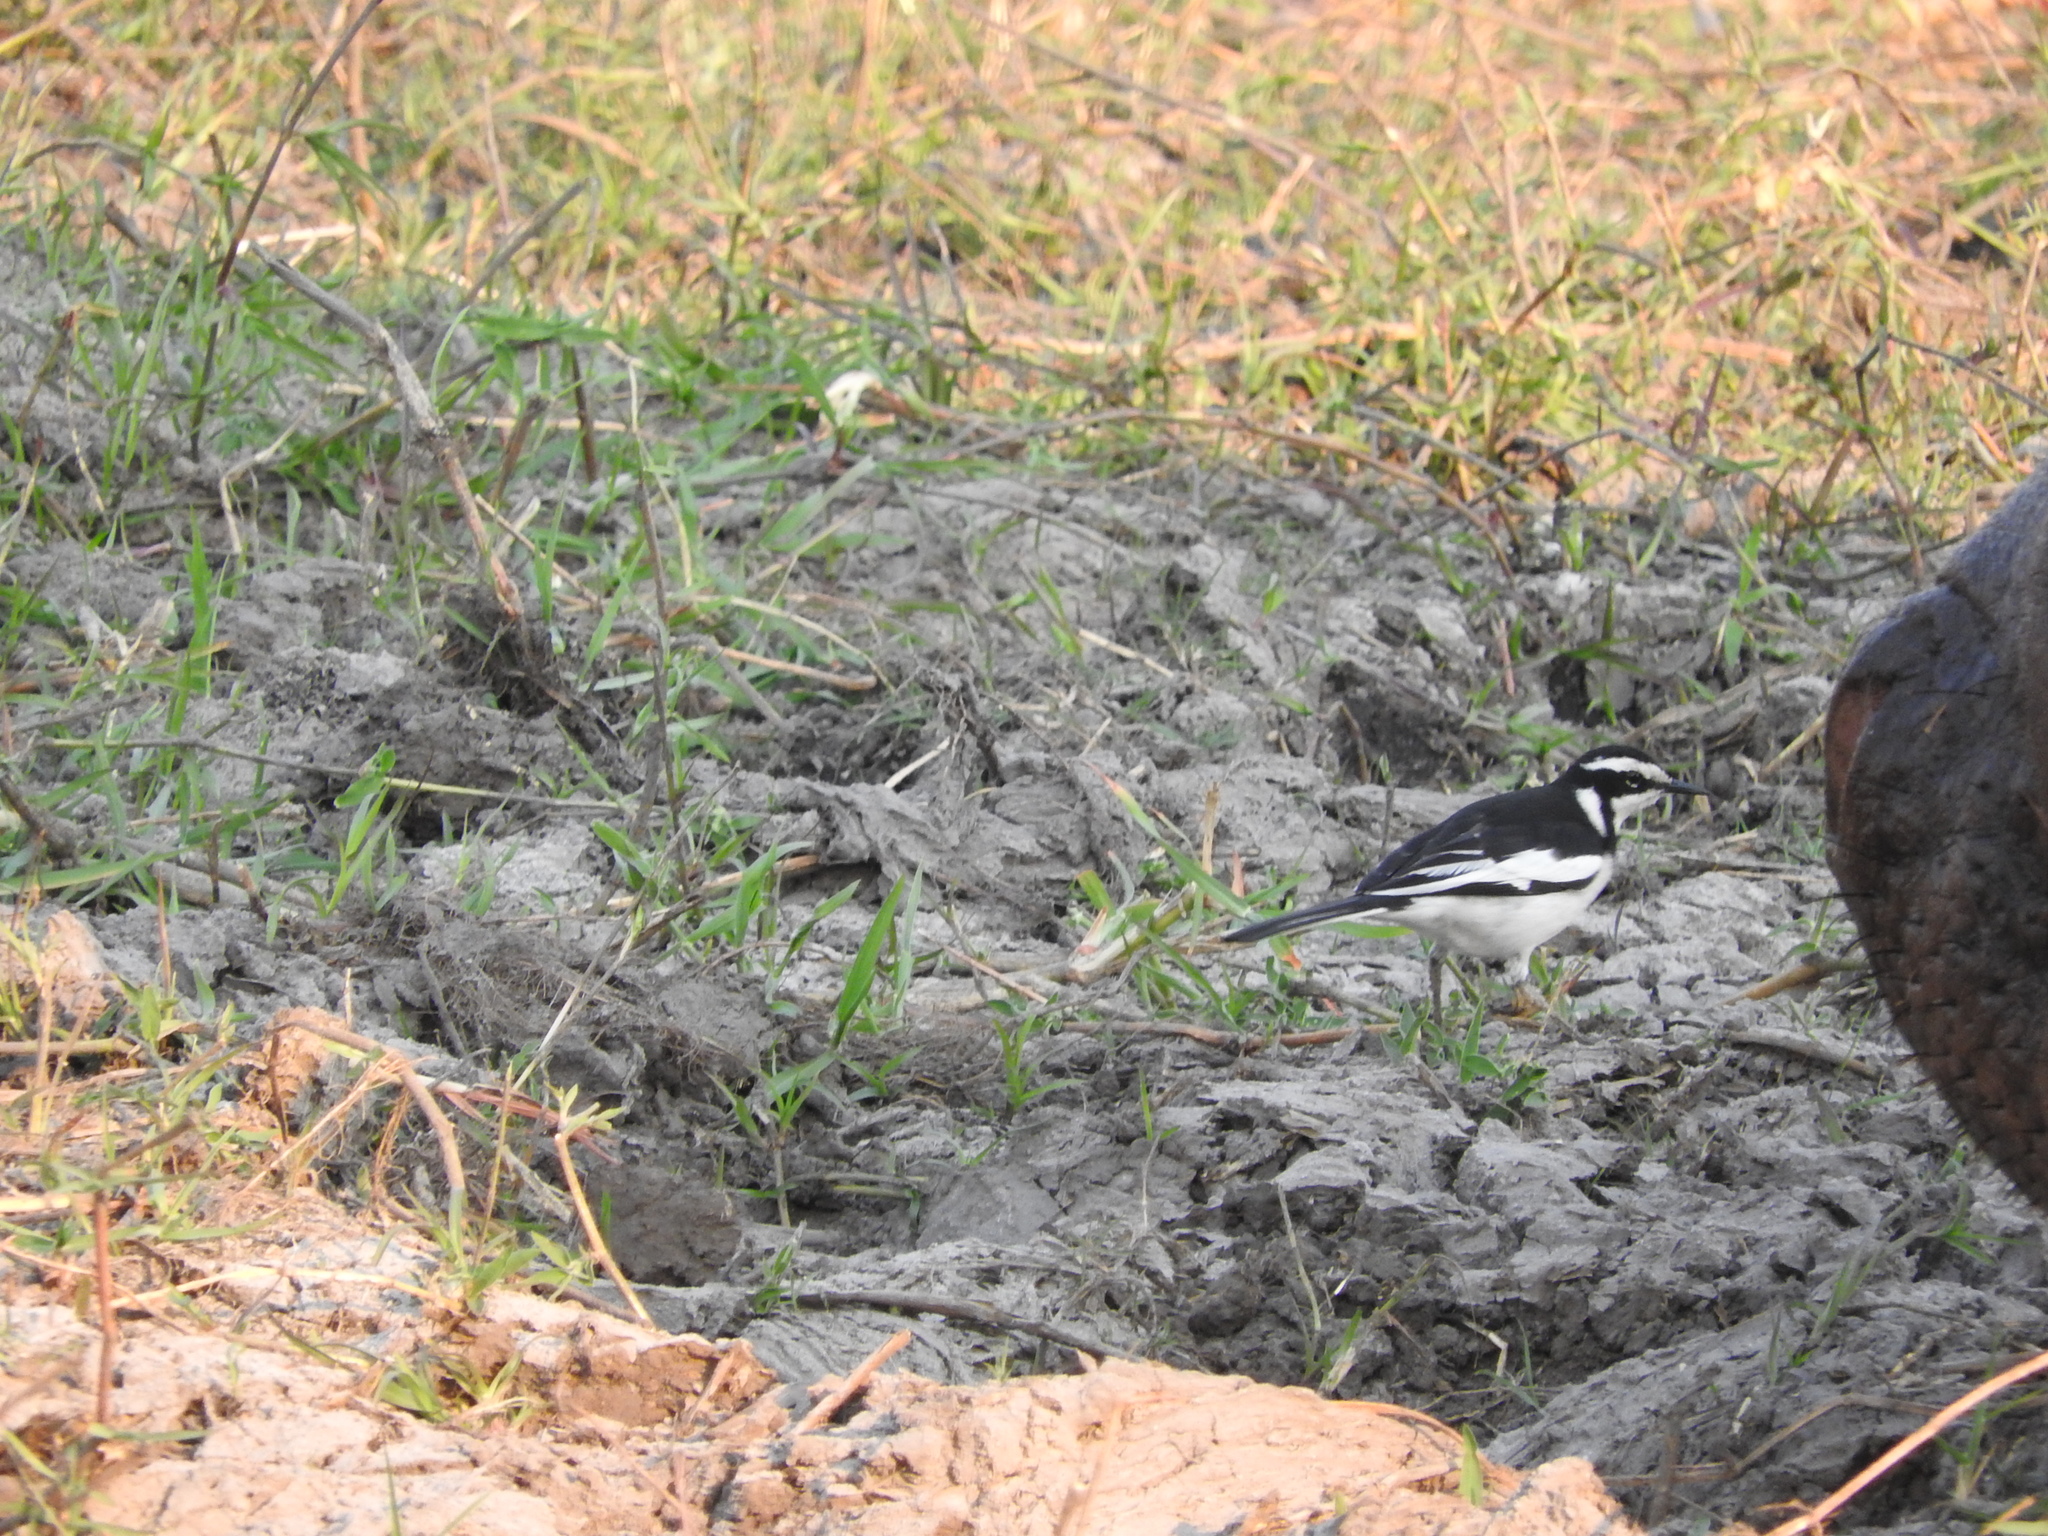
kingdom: Animalia
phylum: Chordata
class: Aves
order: Passeriformes
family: Motacillidae
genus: Motacilla
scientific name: Motacilla aguimp
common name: African pied wagtail
